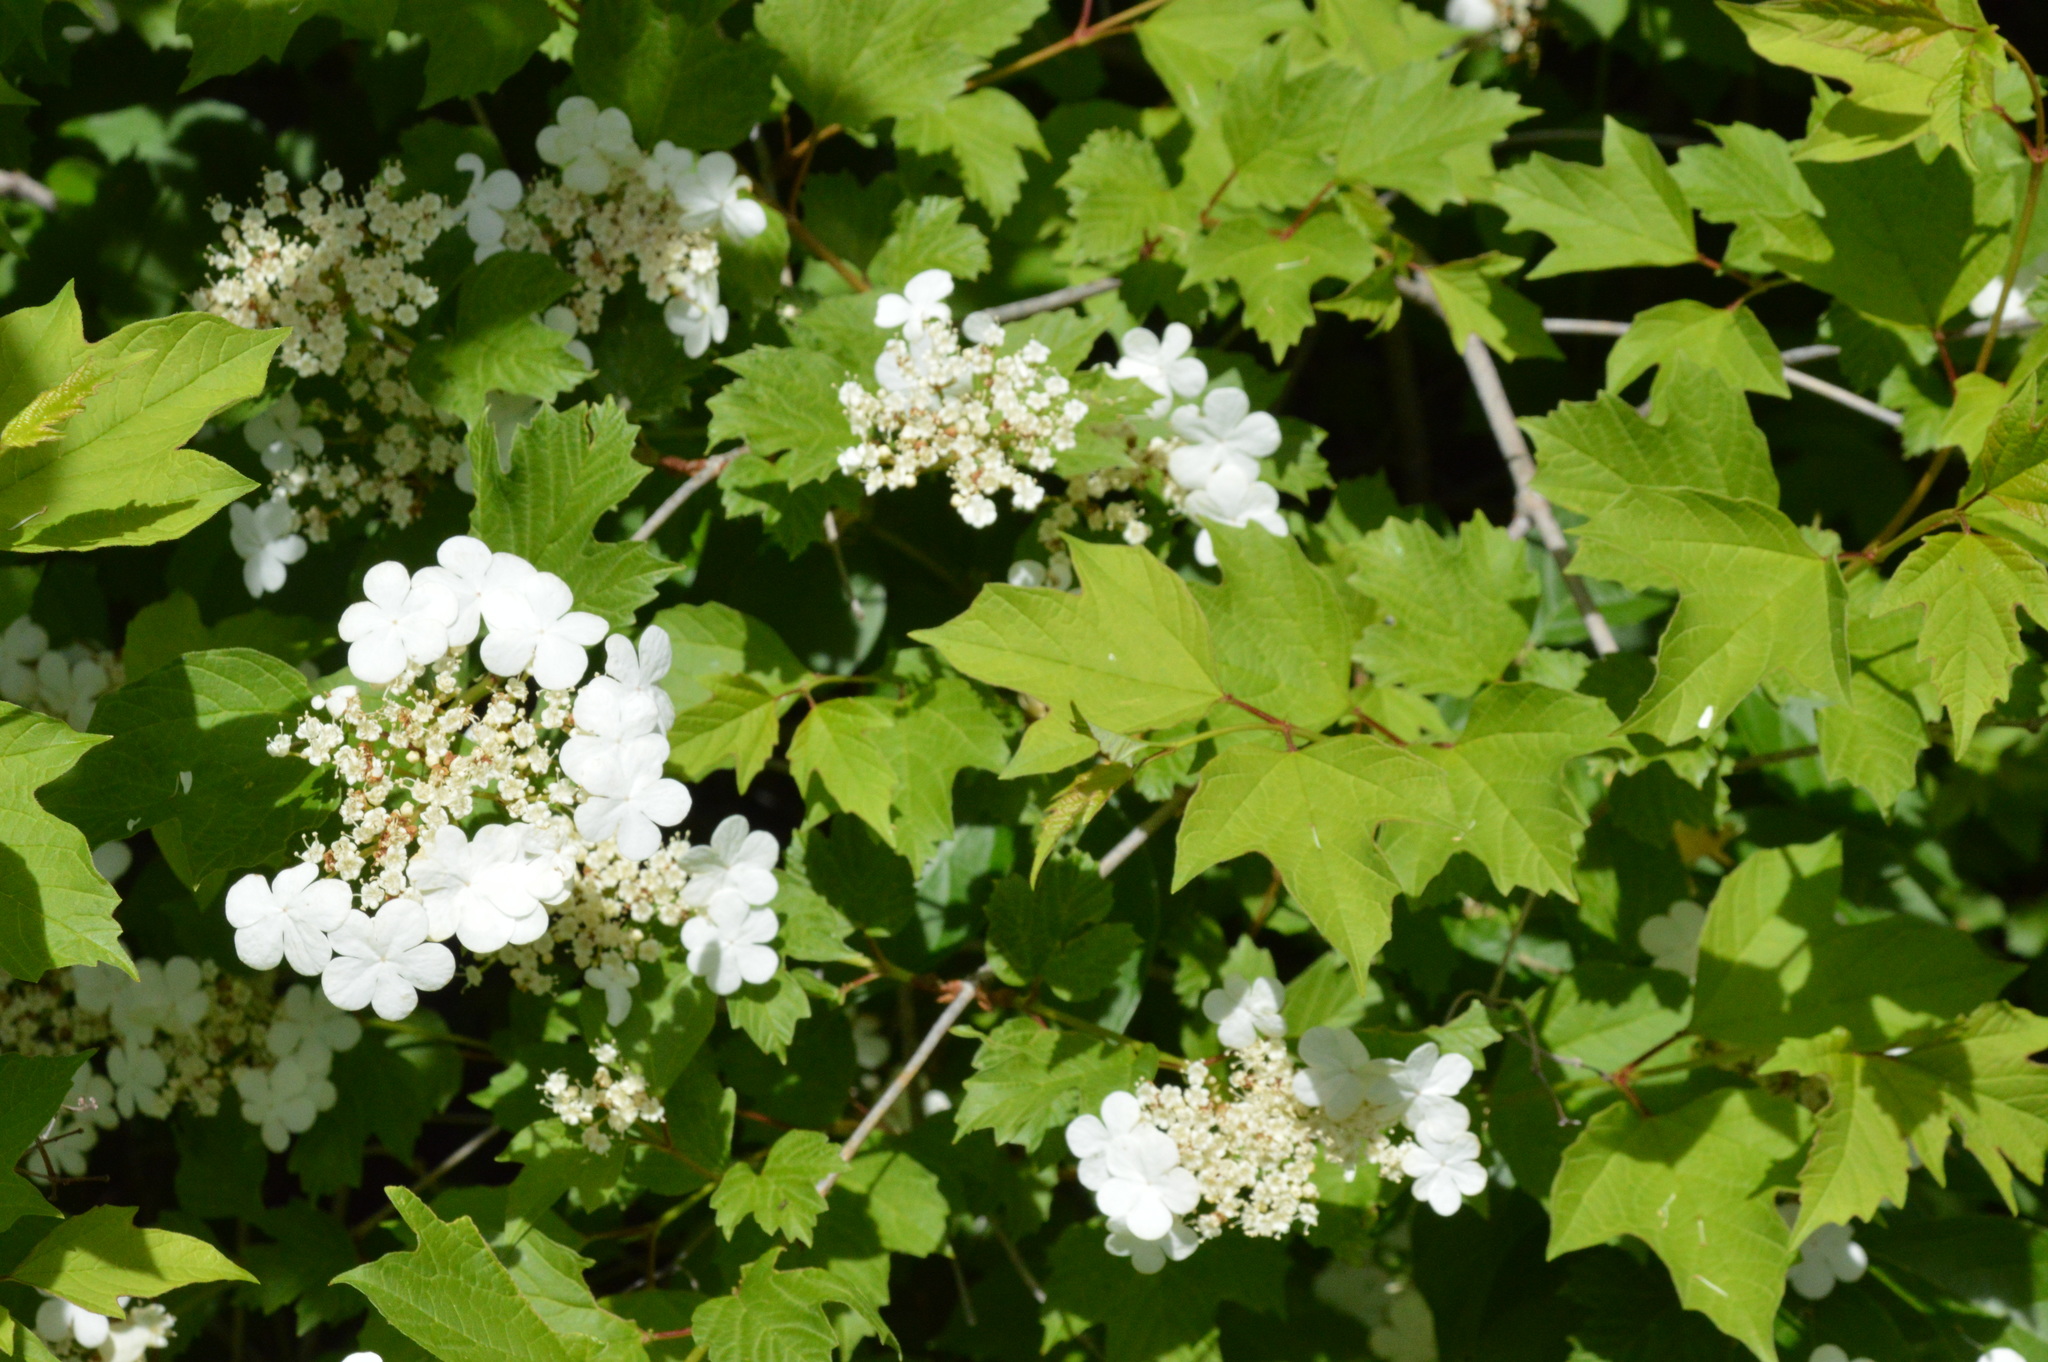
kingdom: Plantae
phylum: Tracheophyta
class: Magnoliopsida
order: Dipsacales
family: Viburnaceae
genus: Viburnum
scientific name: Viburnum opulus
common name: Guelder-rose
